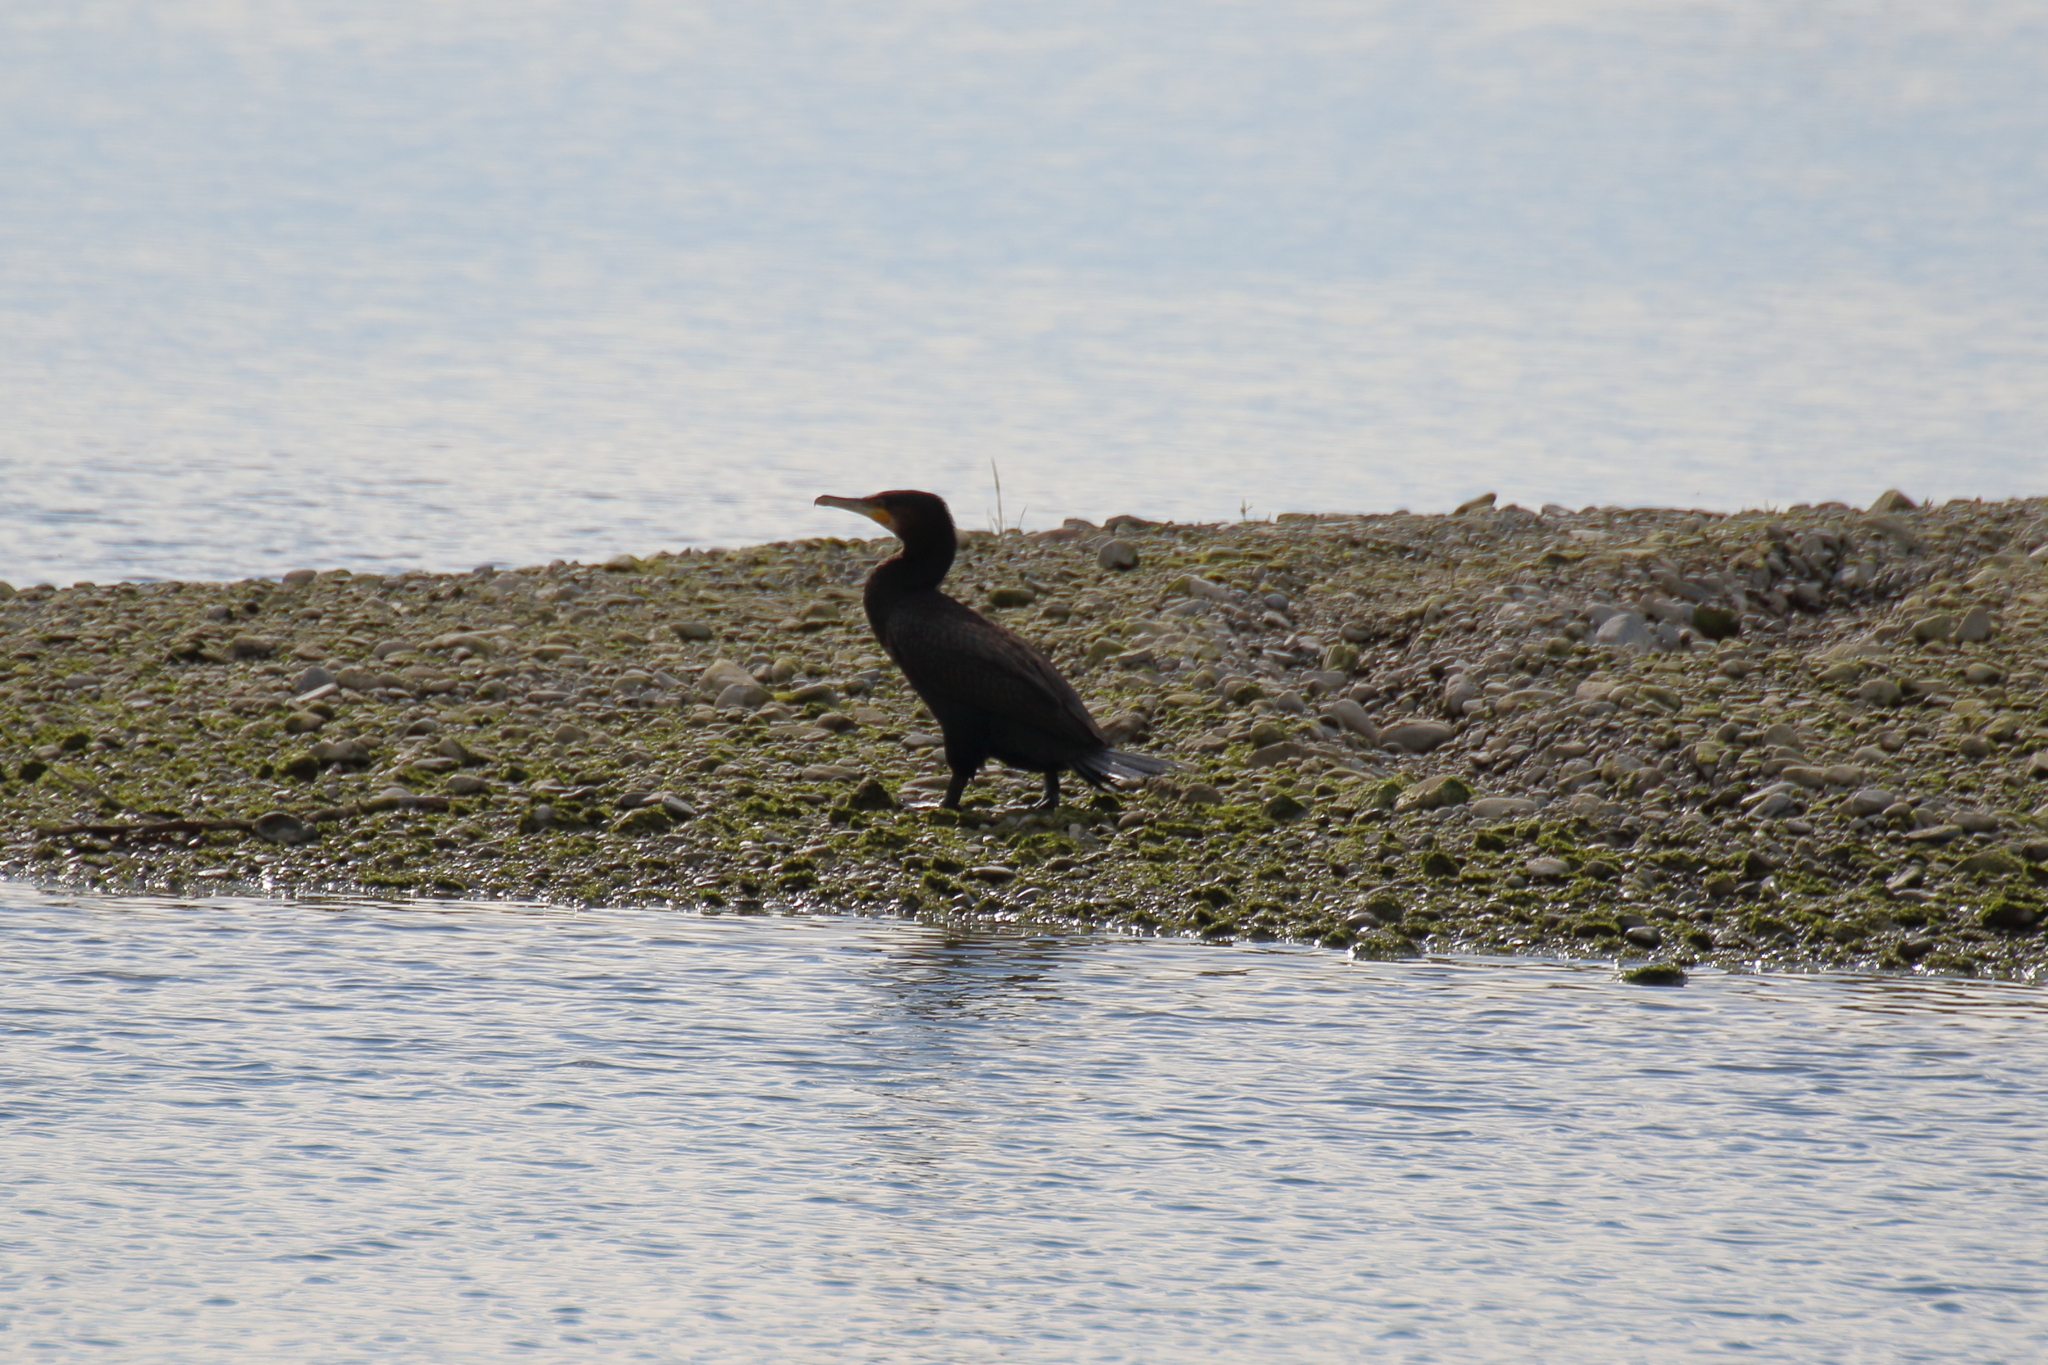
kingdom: Animalia
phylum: Chordata
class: Aves
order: Suliformes
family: Phalacrocoracidae
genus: Phalacrocorax
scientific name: Phalacrocorax carbo
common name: Great cormorant
